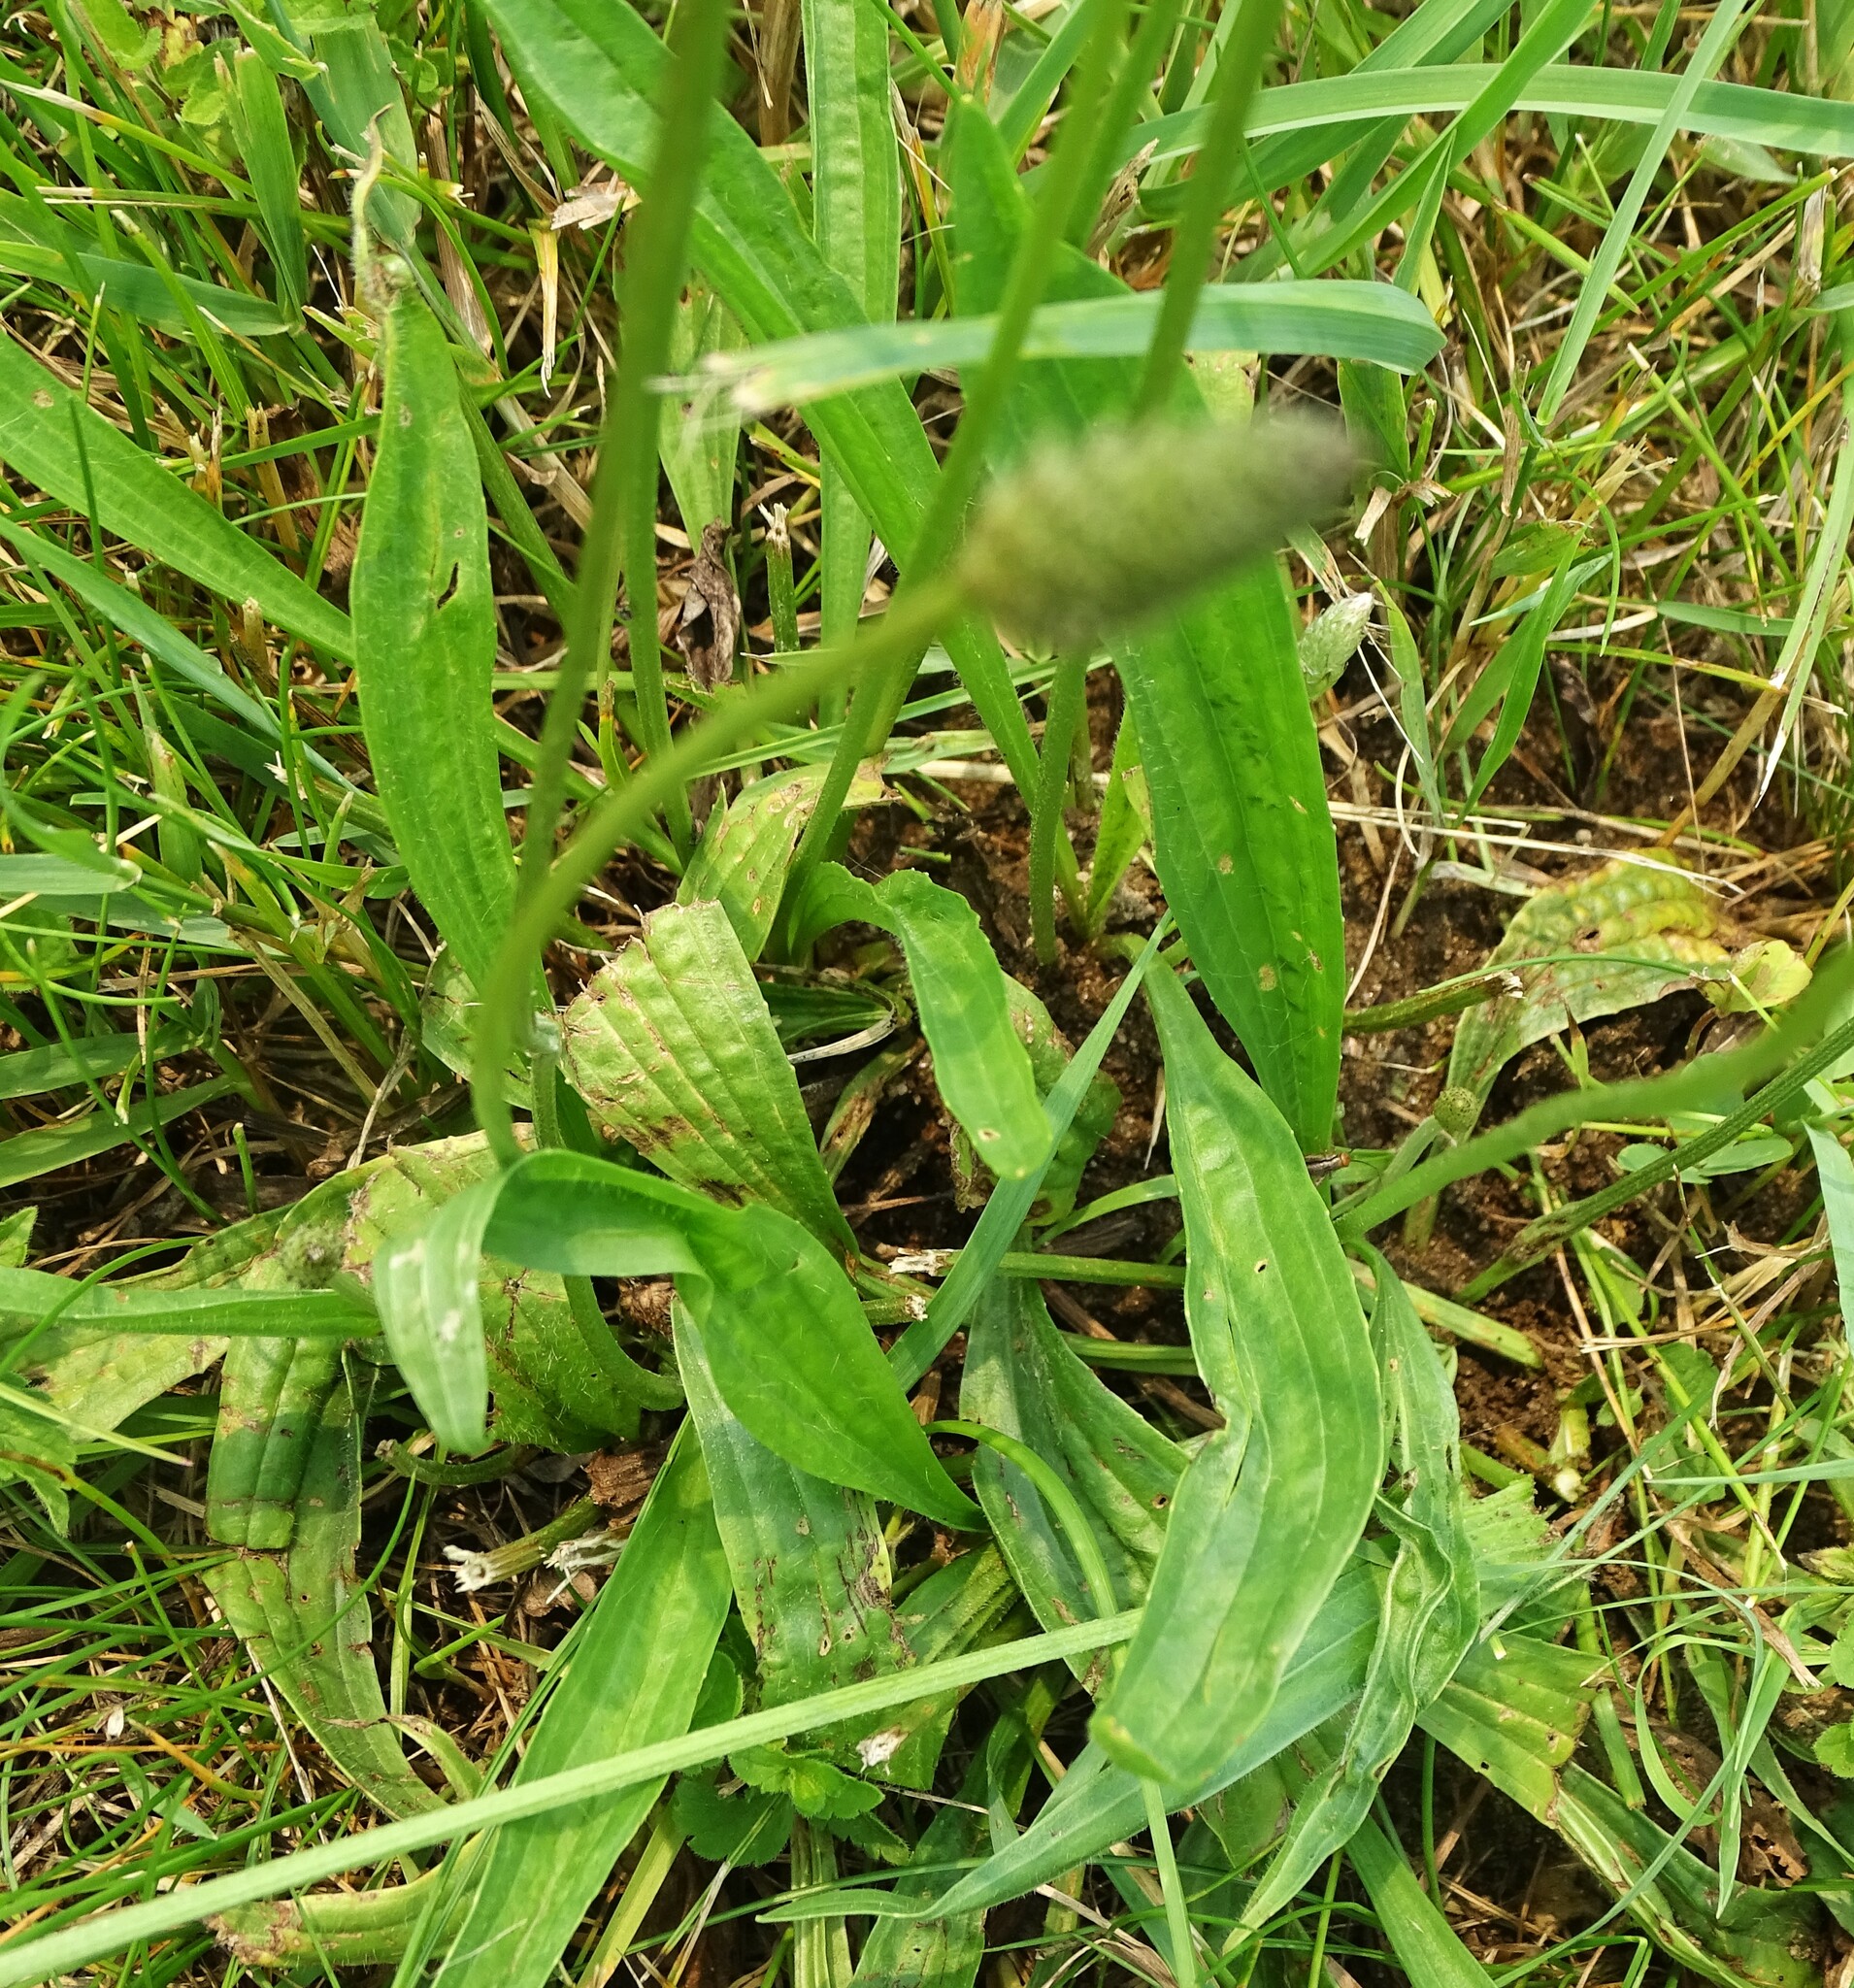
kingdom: Plantae
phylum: Tracheophyta
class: Magnoliopsida
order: Lamiales
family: Plantaginaceae
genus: Plantago
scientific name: Plantago lanceolata
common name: Ribwort plantain
